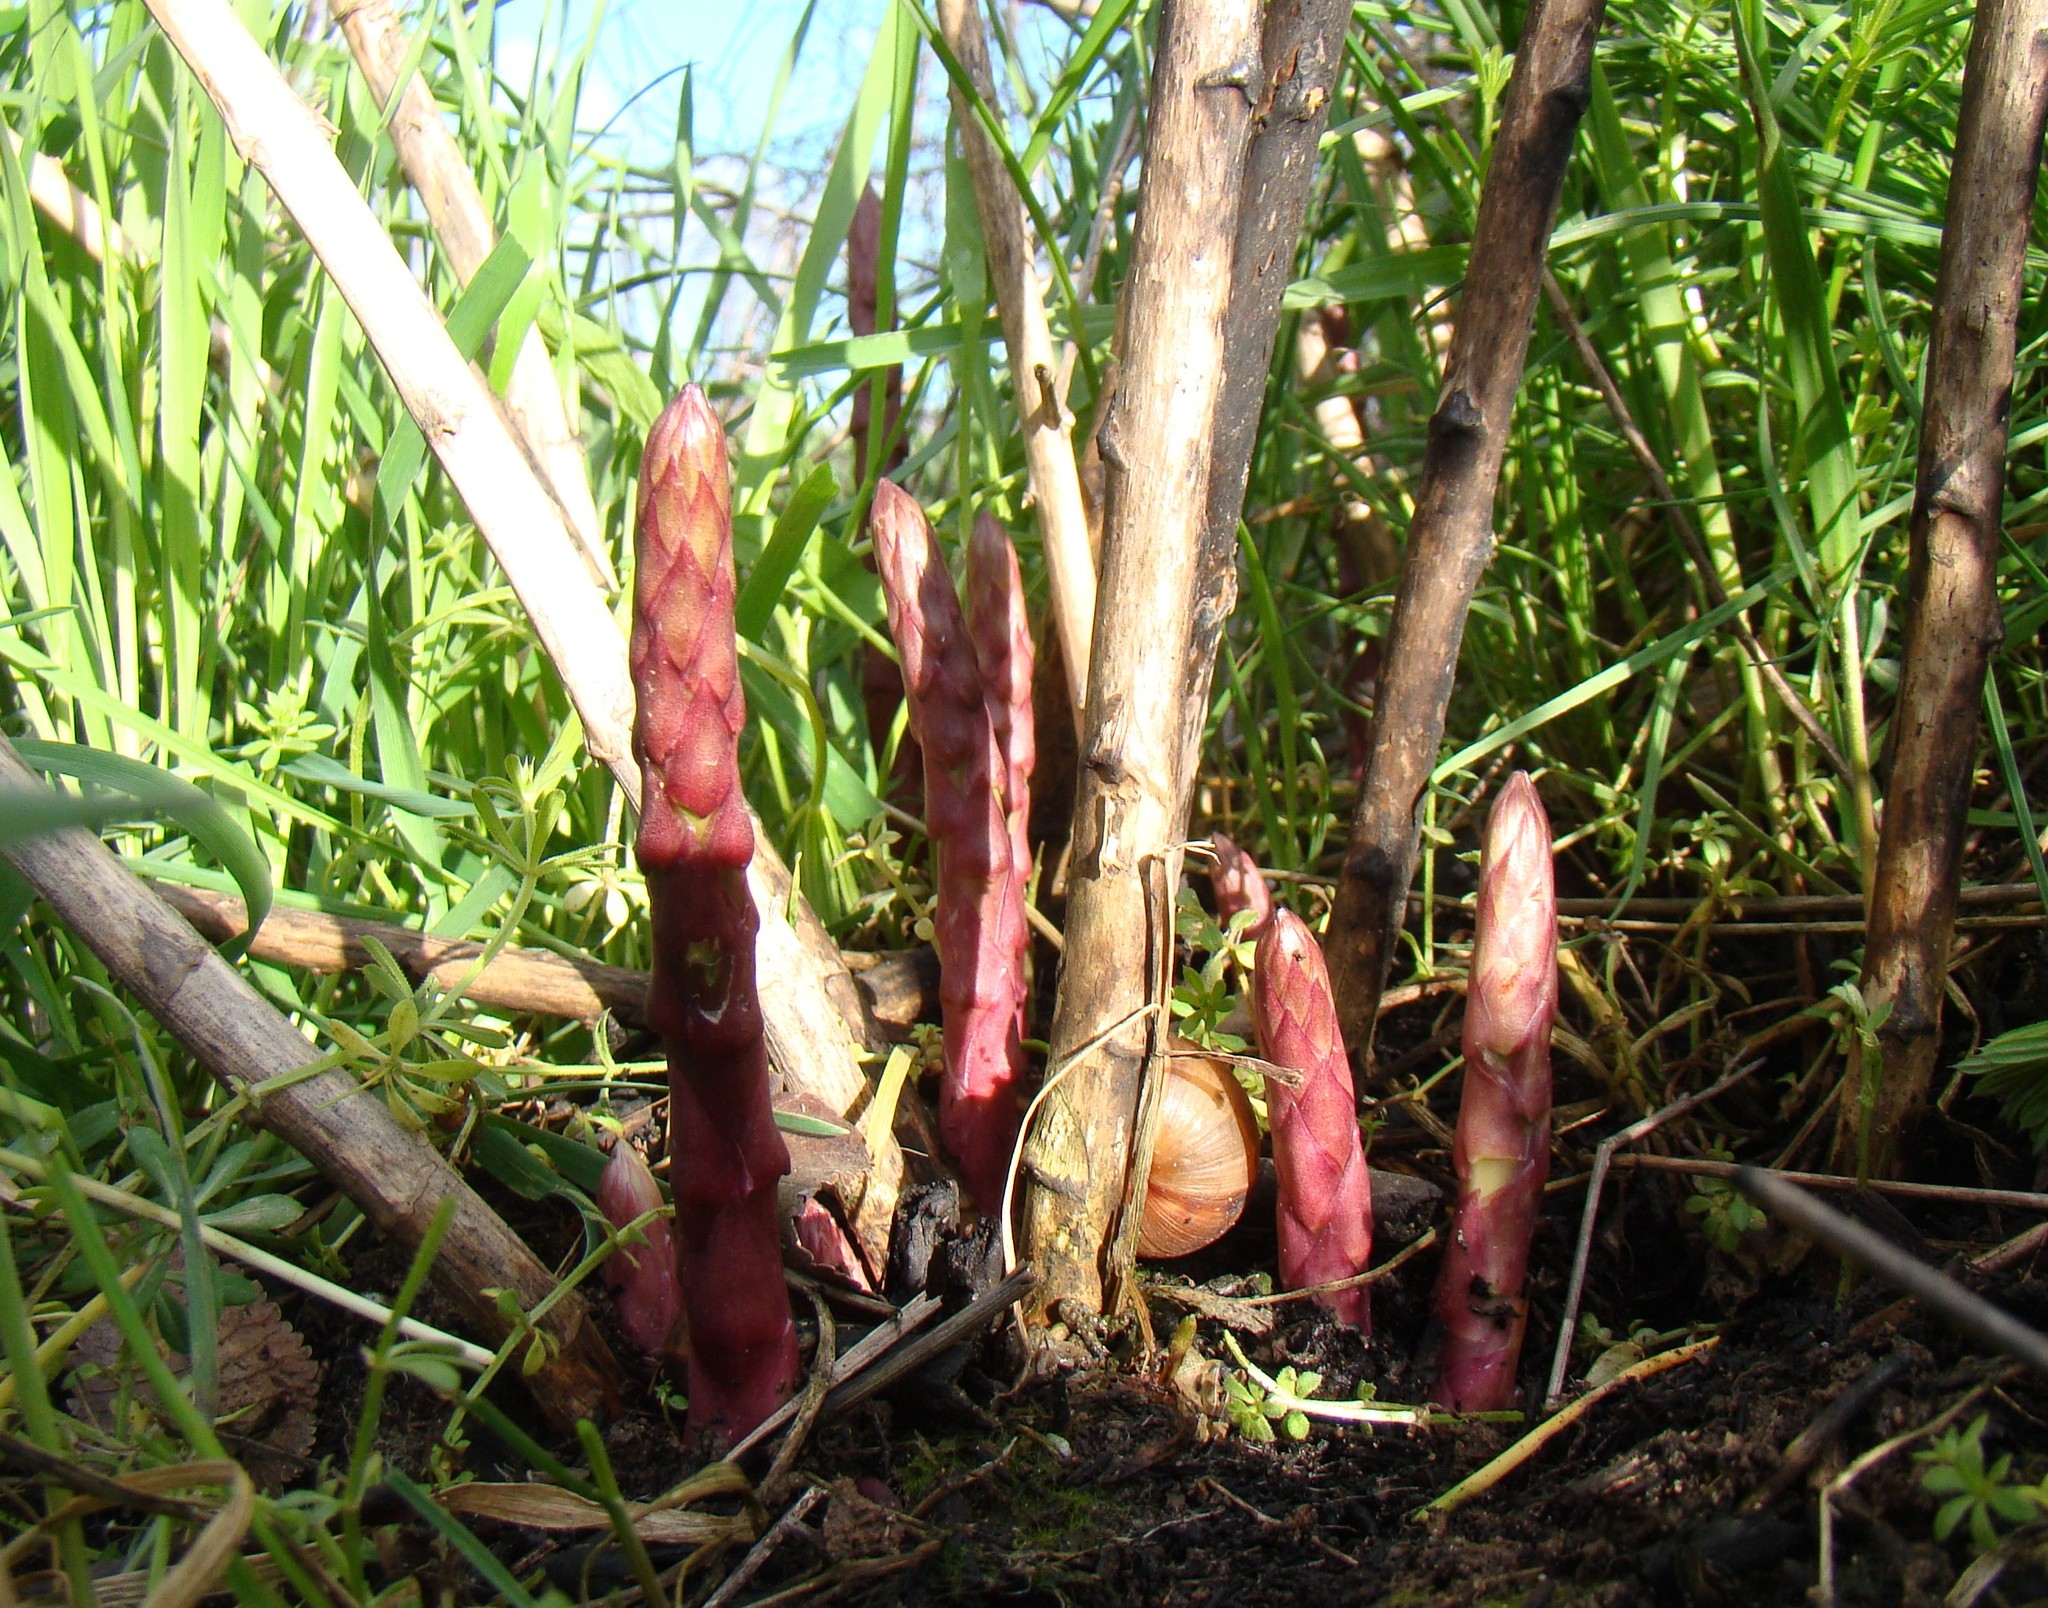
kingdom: Plantae
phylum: Tracheophyta
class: Liliopsida
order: Asparagales
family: Asparagaceae
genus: Asparagus
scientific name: Asparagus verticillatus
